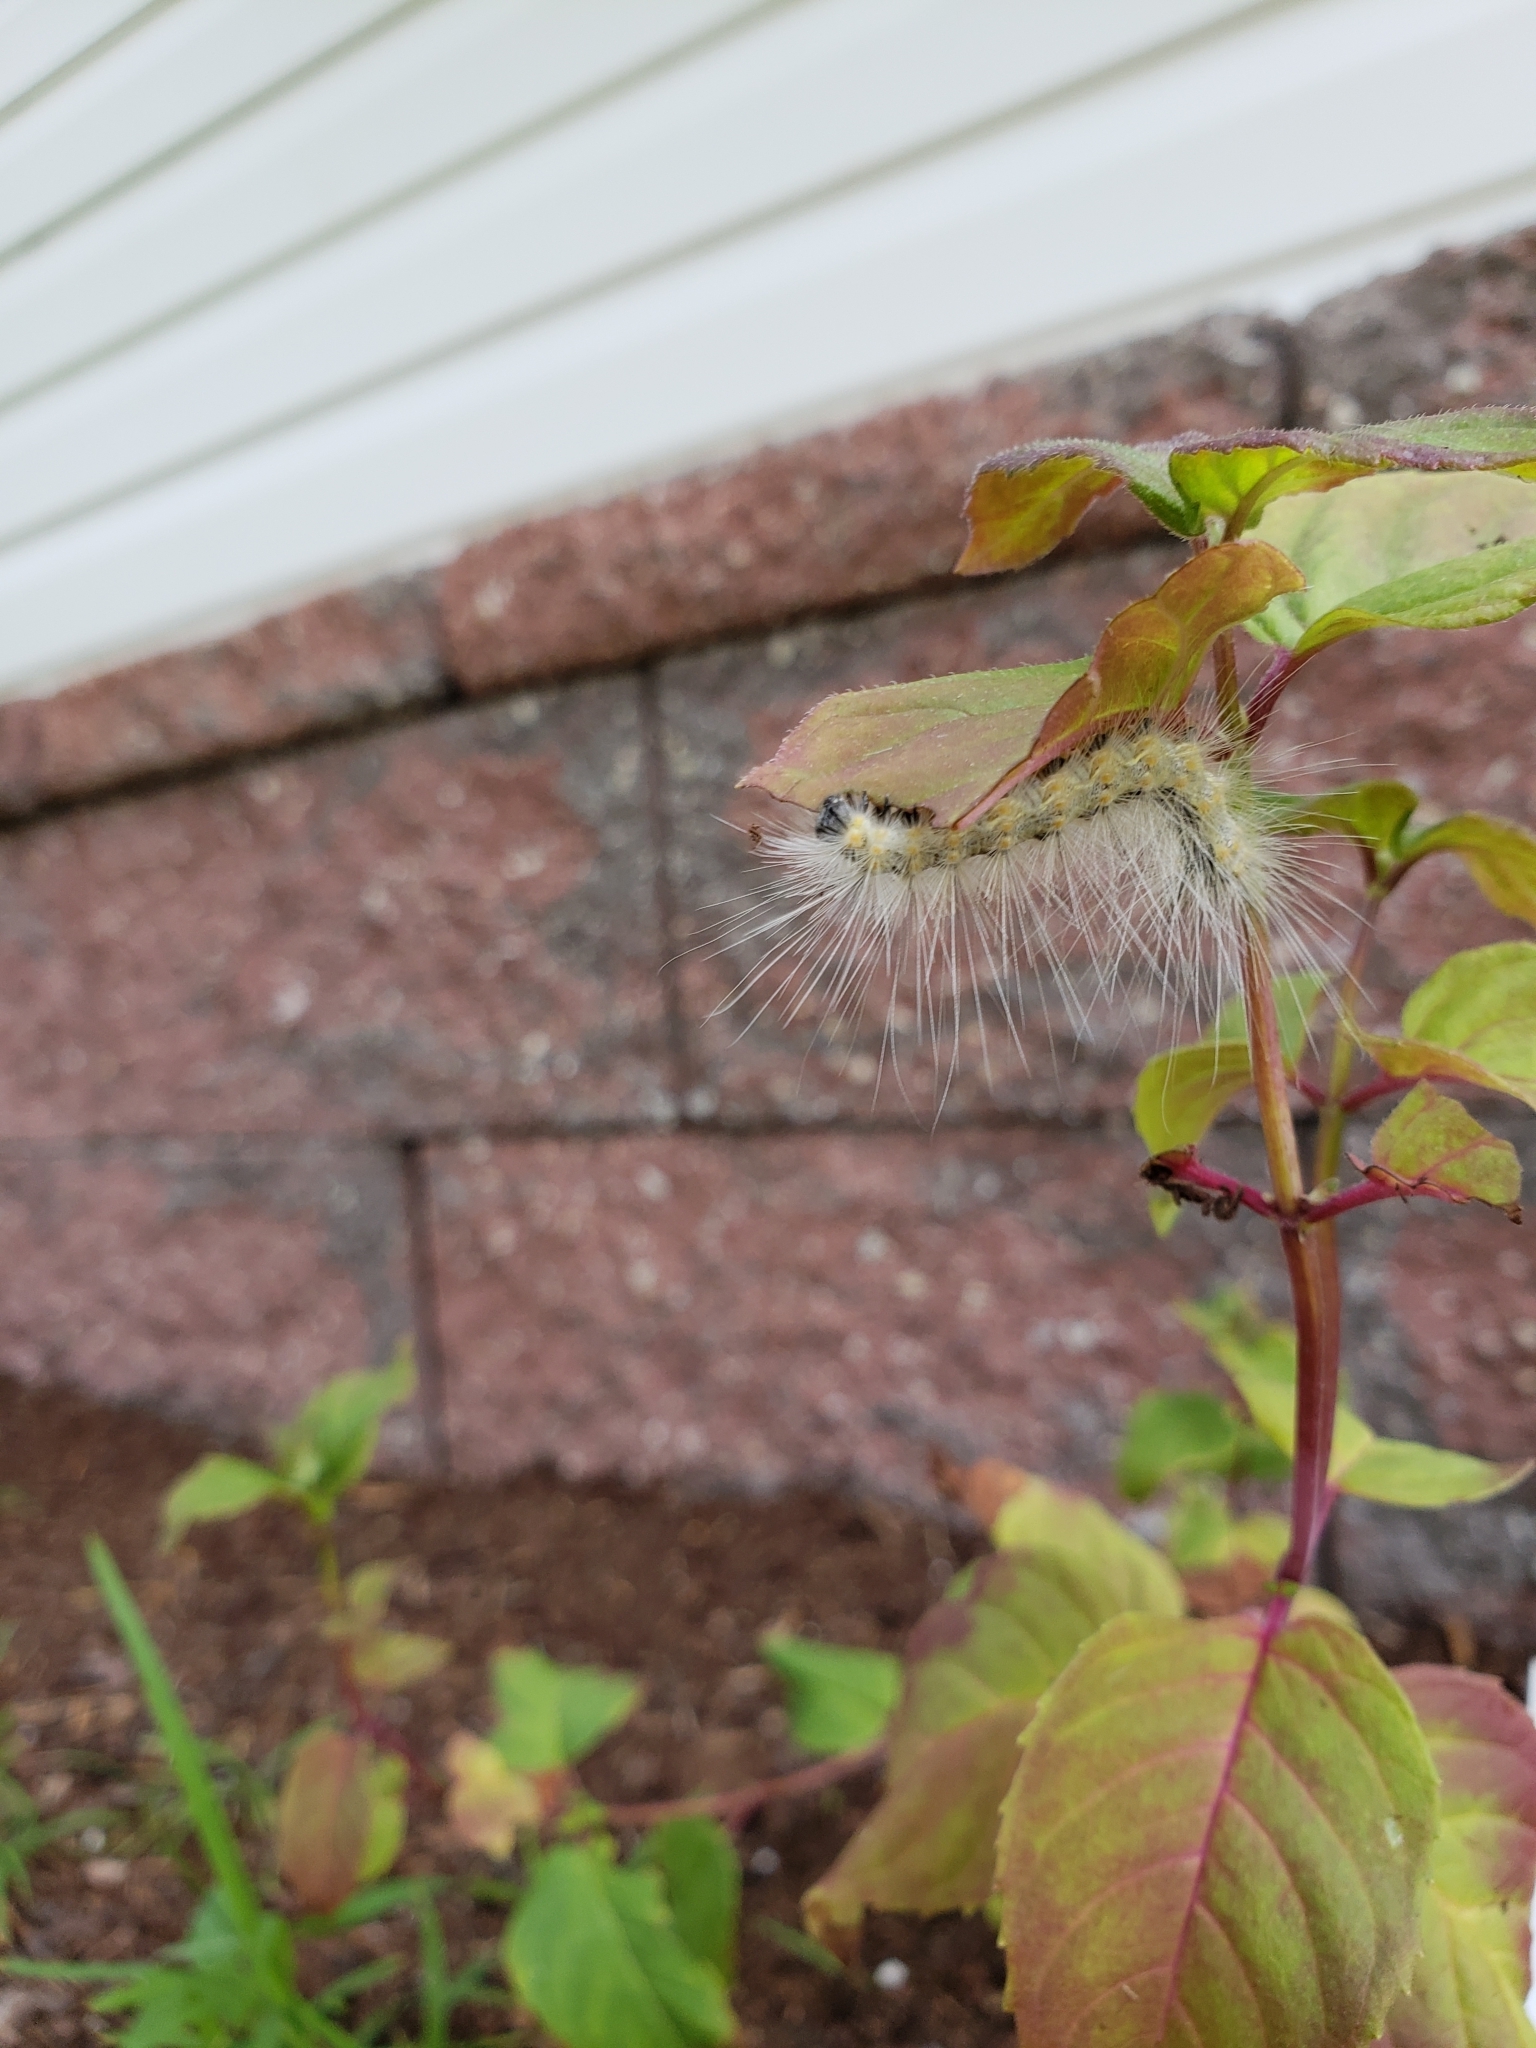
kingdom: Animalia
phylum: Arthropoda
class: Insecta
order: Lepidoptera
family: Erebidae
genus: Hyphantria
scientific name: Hyphantria cunea
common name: American white moth
